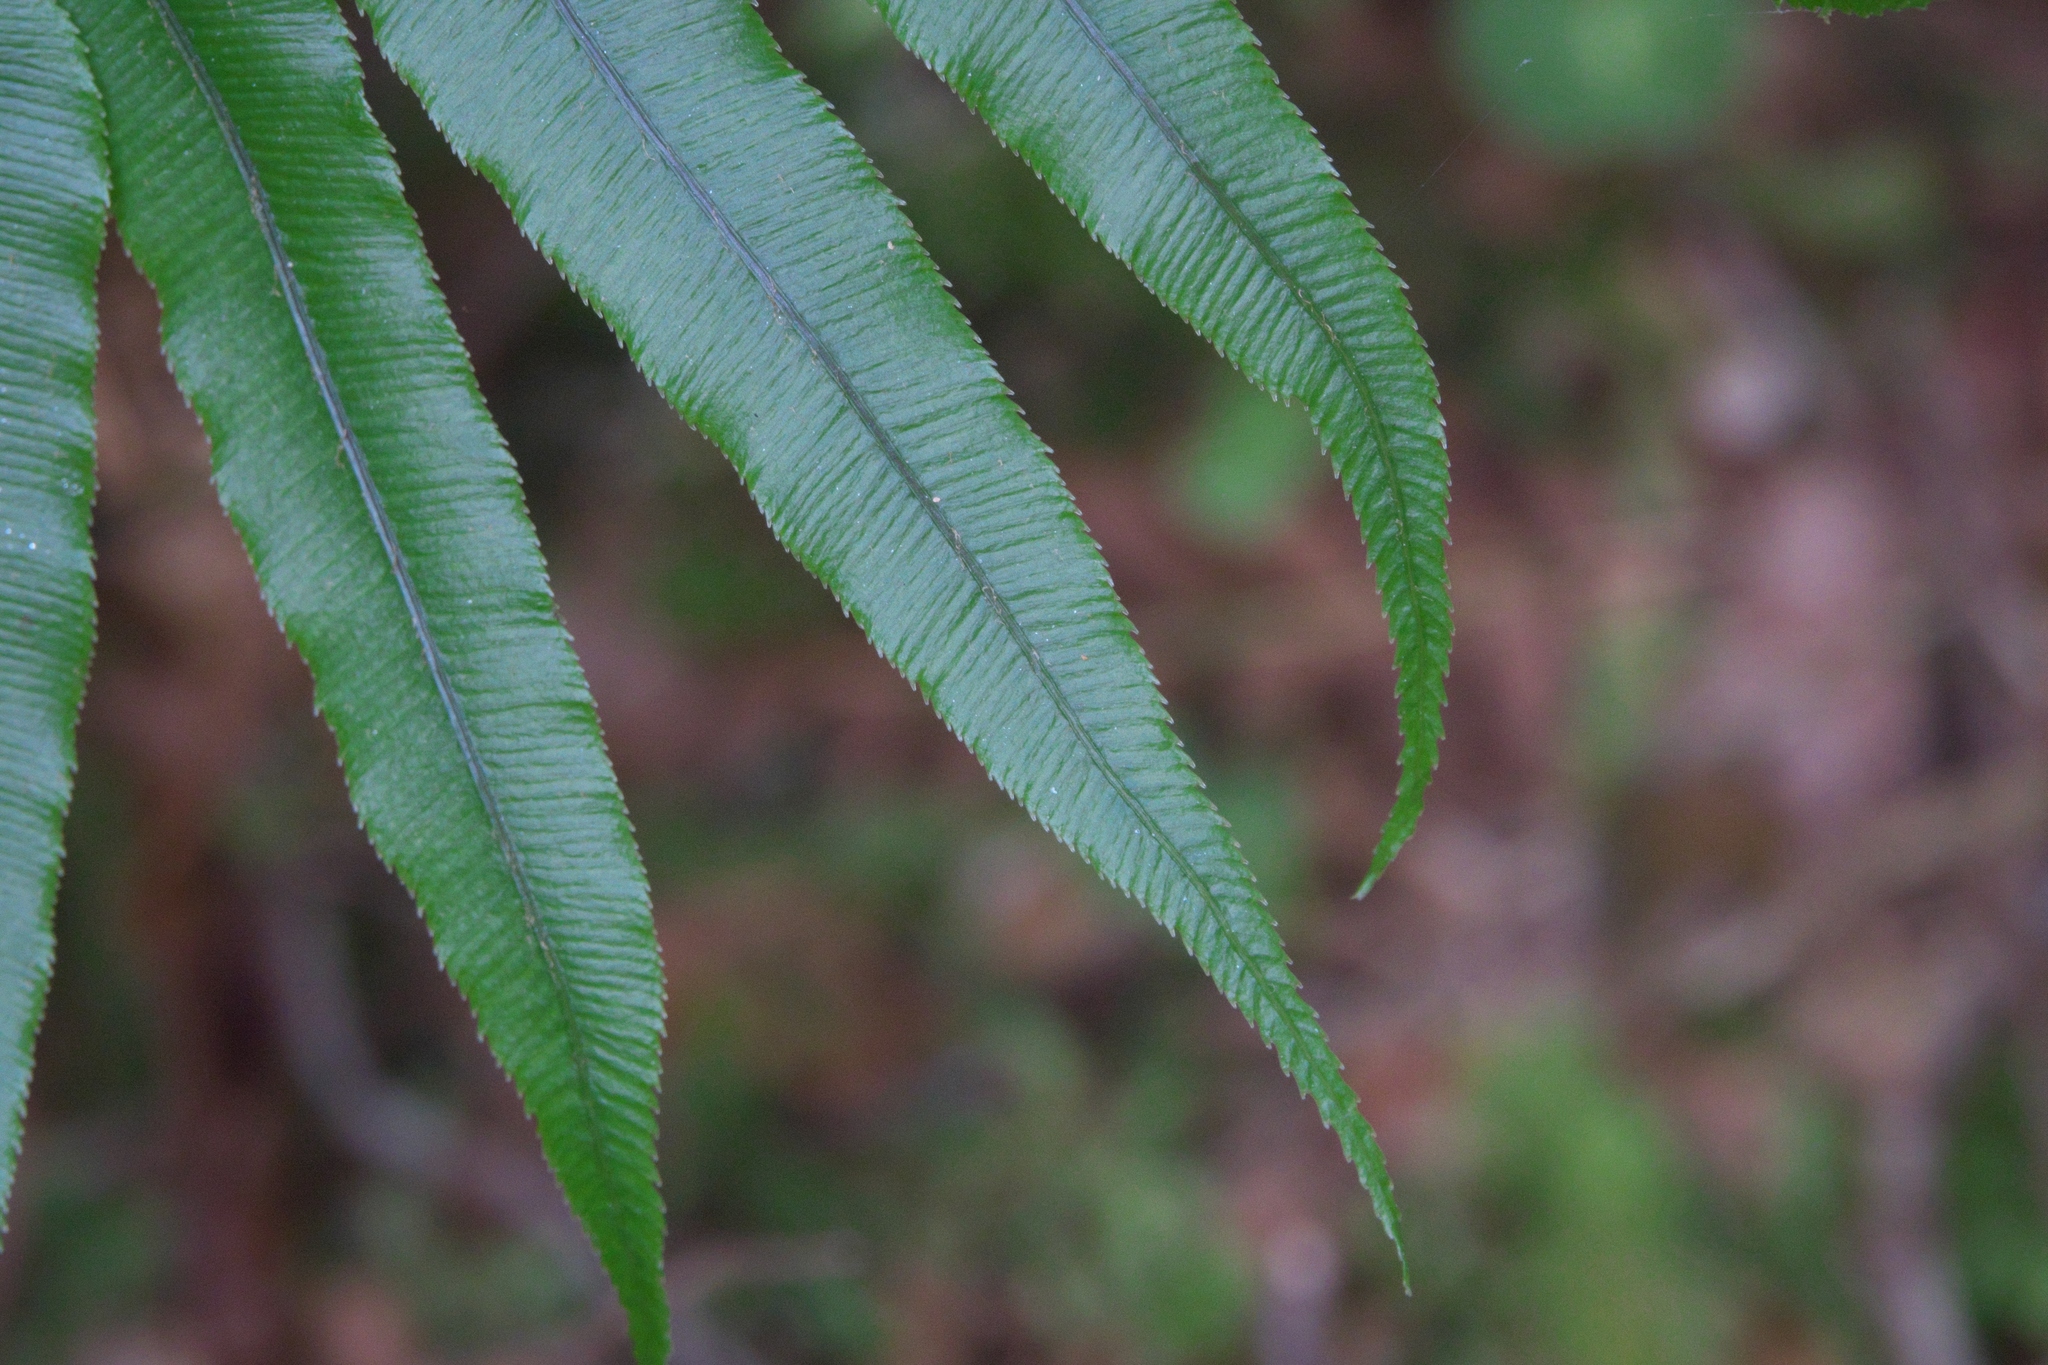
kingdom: Plantae
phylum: Tracheophyta
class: Polypodiopsida
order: Polypodiales
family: Blechnaceae
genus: Parablechnum
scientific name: Parablechnum novae-zelandiae
